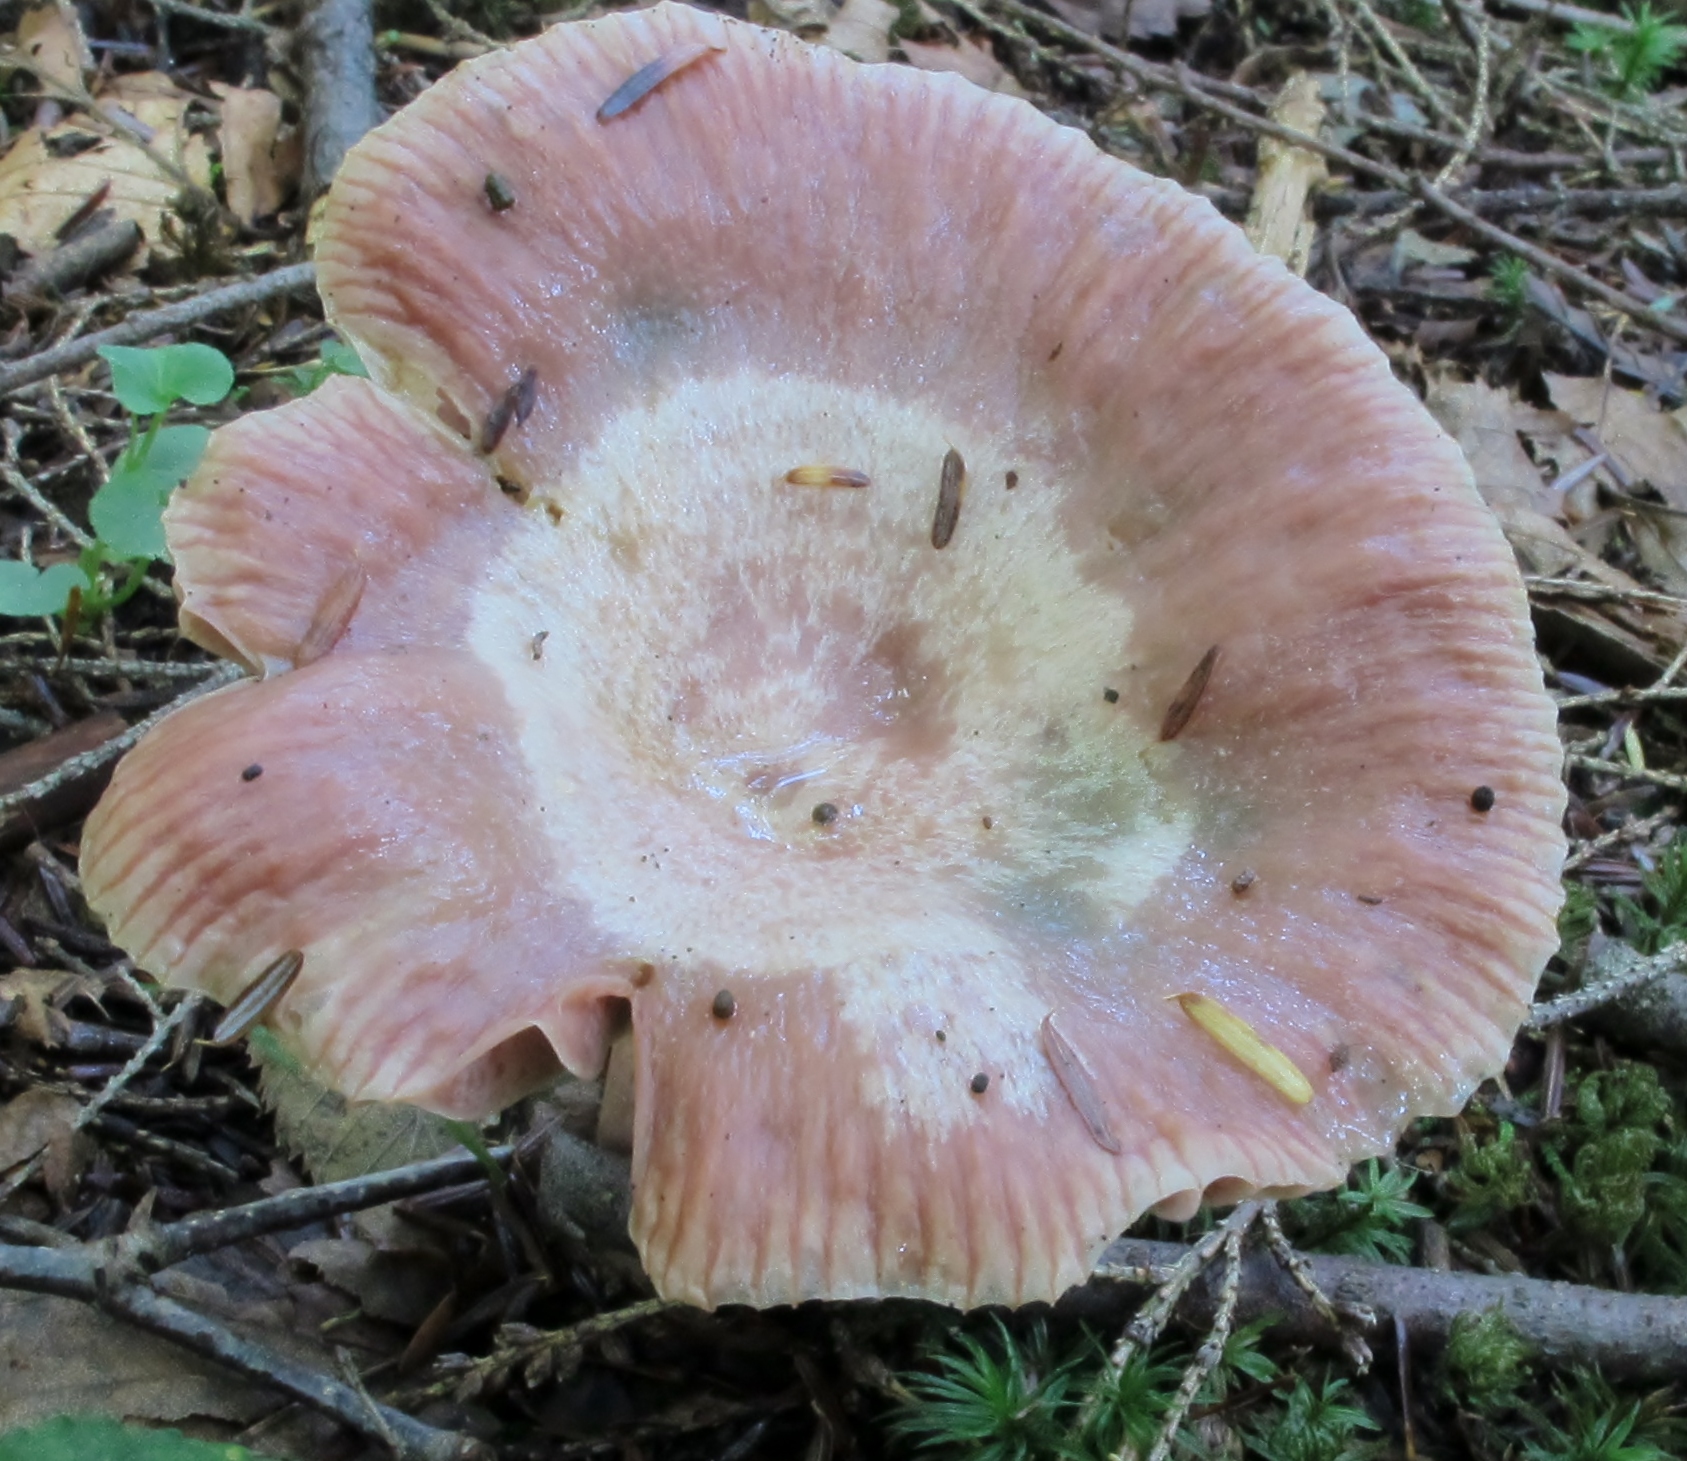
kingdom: Fungi
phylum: Basidiomycota
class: Agaricomycetes
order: Russulales
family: Russulaceae
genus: Lactarius
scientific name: Lactarius subpurpureus
